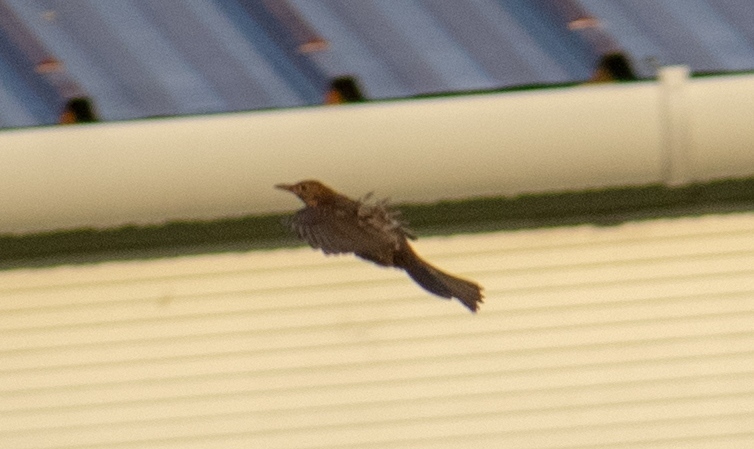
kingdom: Animalia
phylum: Chordata
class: Aves
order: Passeriformes
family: Turdidae
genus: Turdus
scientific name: Turdus merula
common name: Common blackbird
